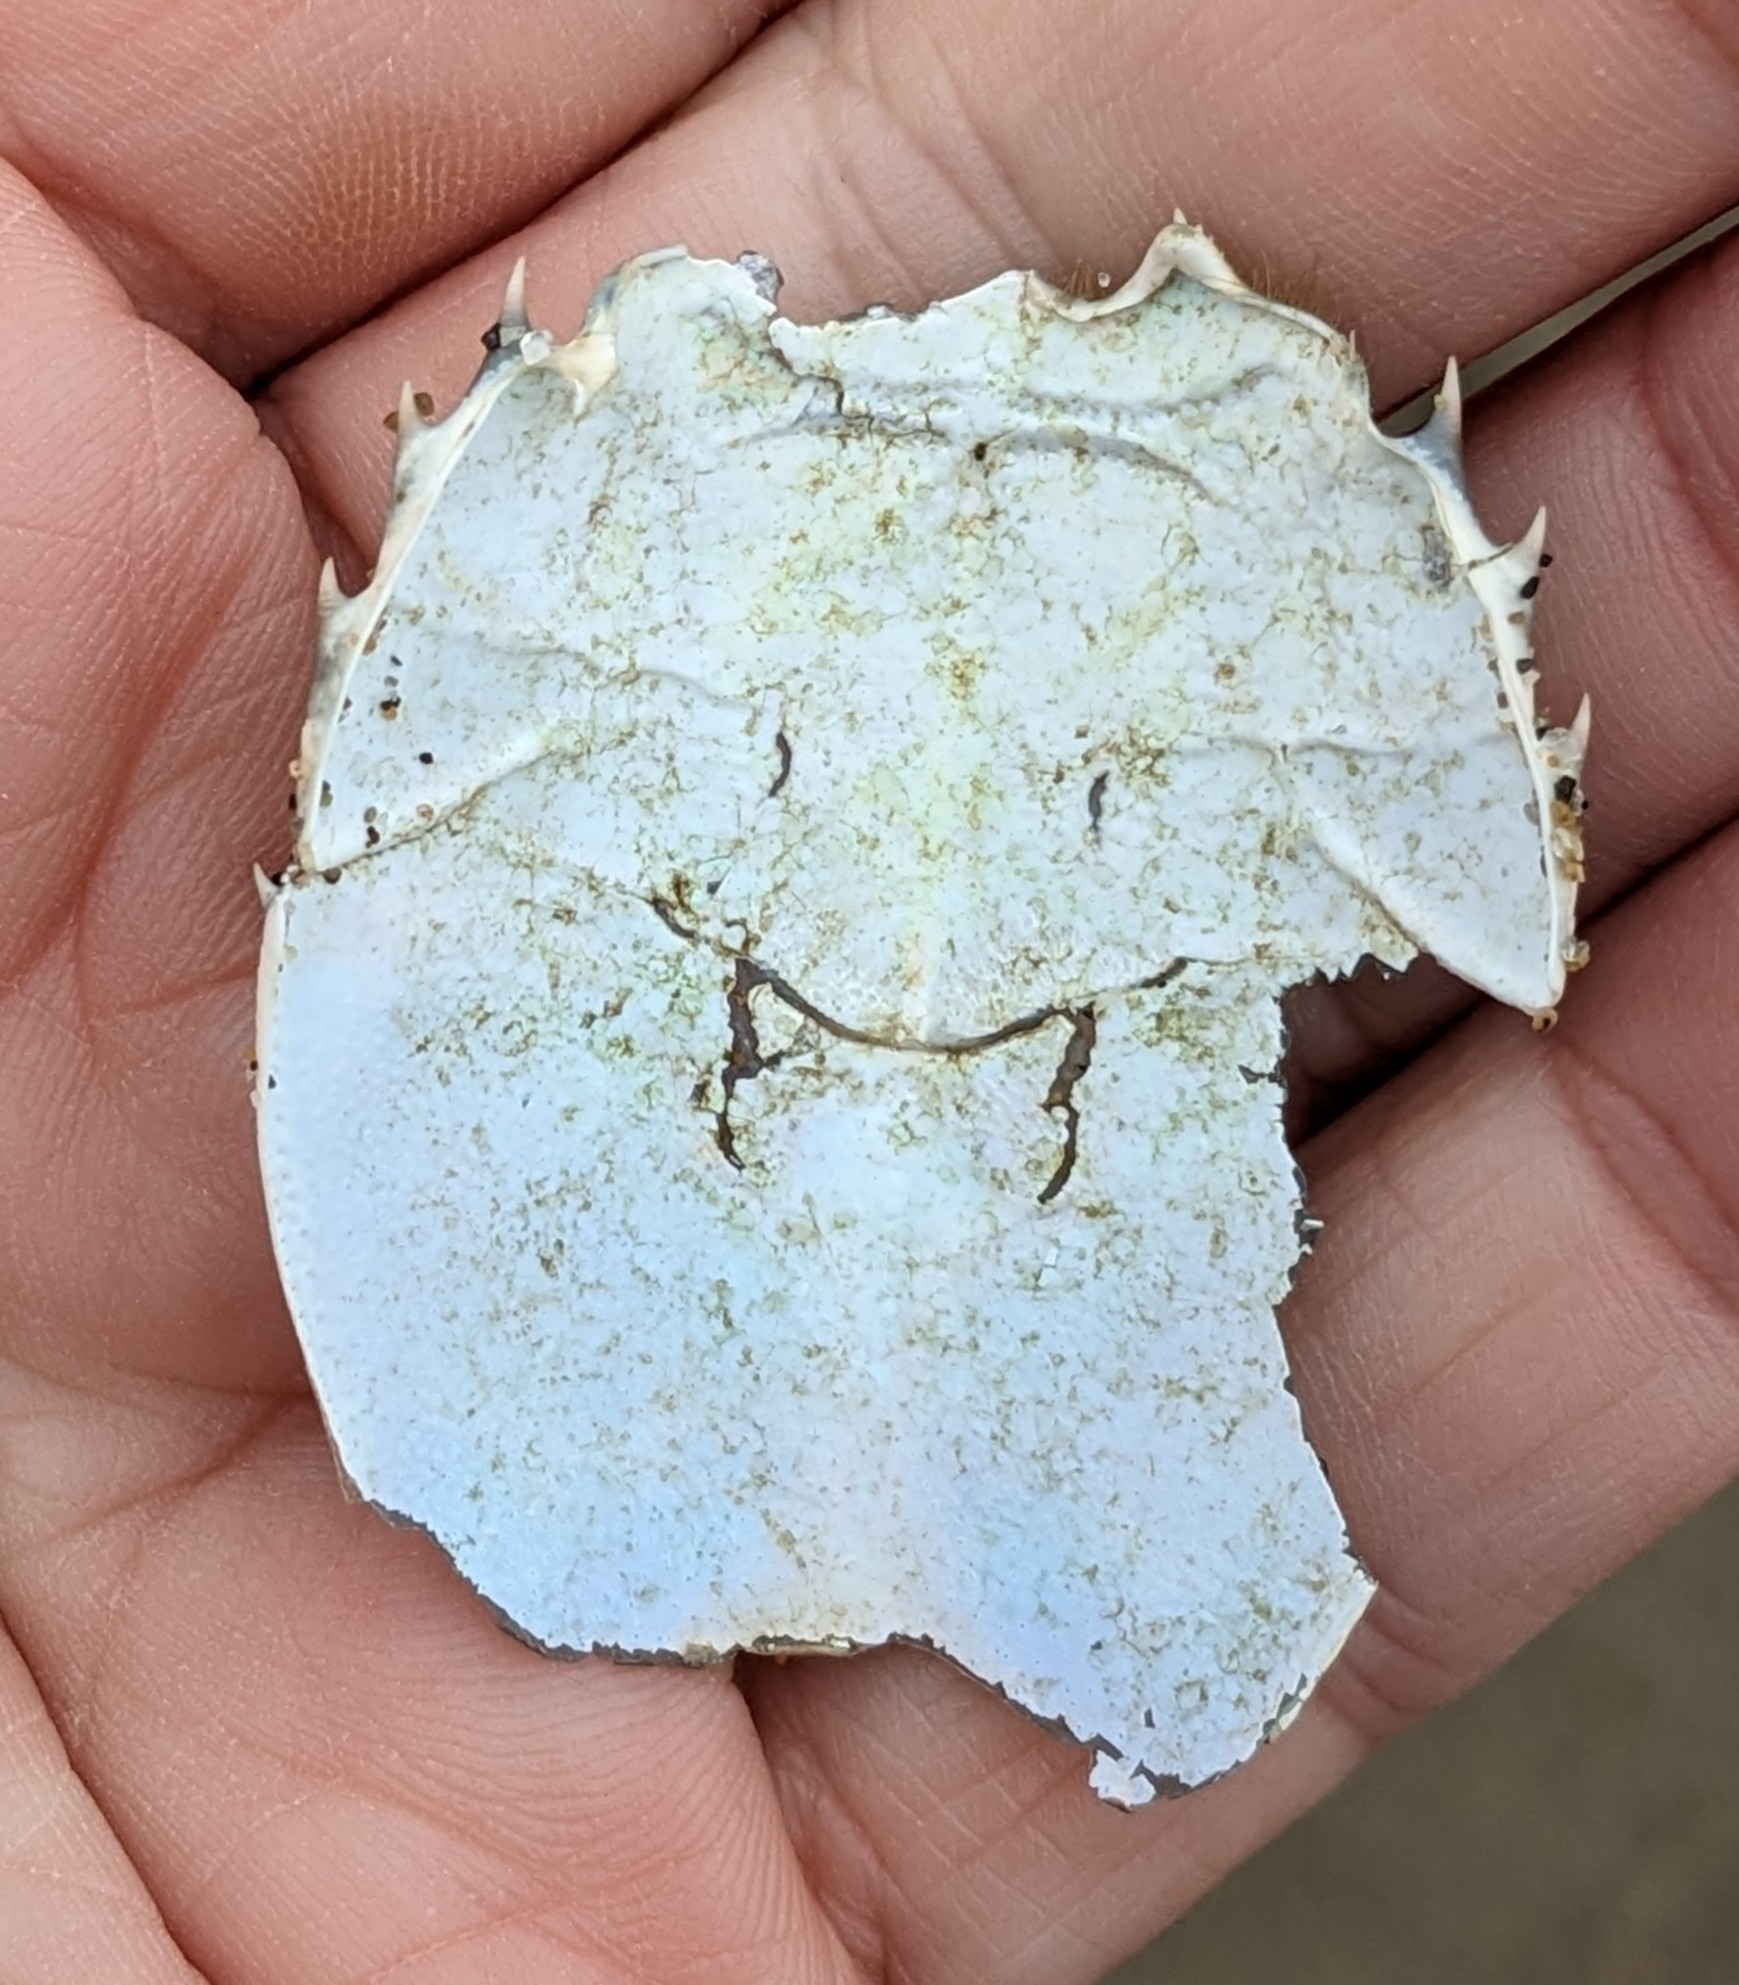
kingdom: Animalia
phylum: Arthropoda
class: Malacostraca
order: Decapoda
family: Blepharipodidae
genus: Blepharipoda
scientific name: Blepharipoda occidentalis
